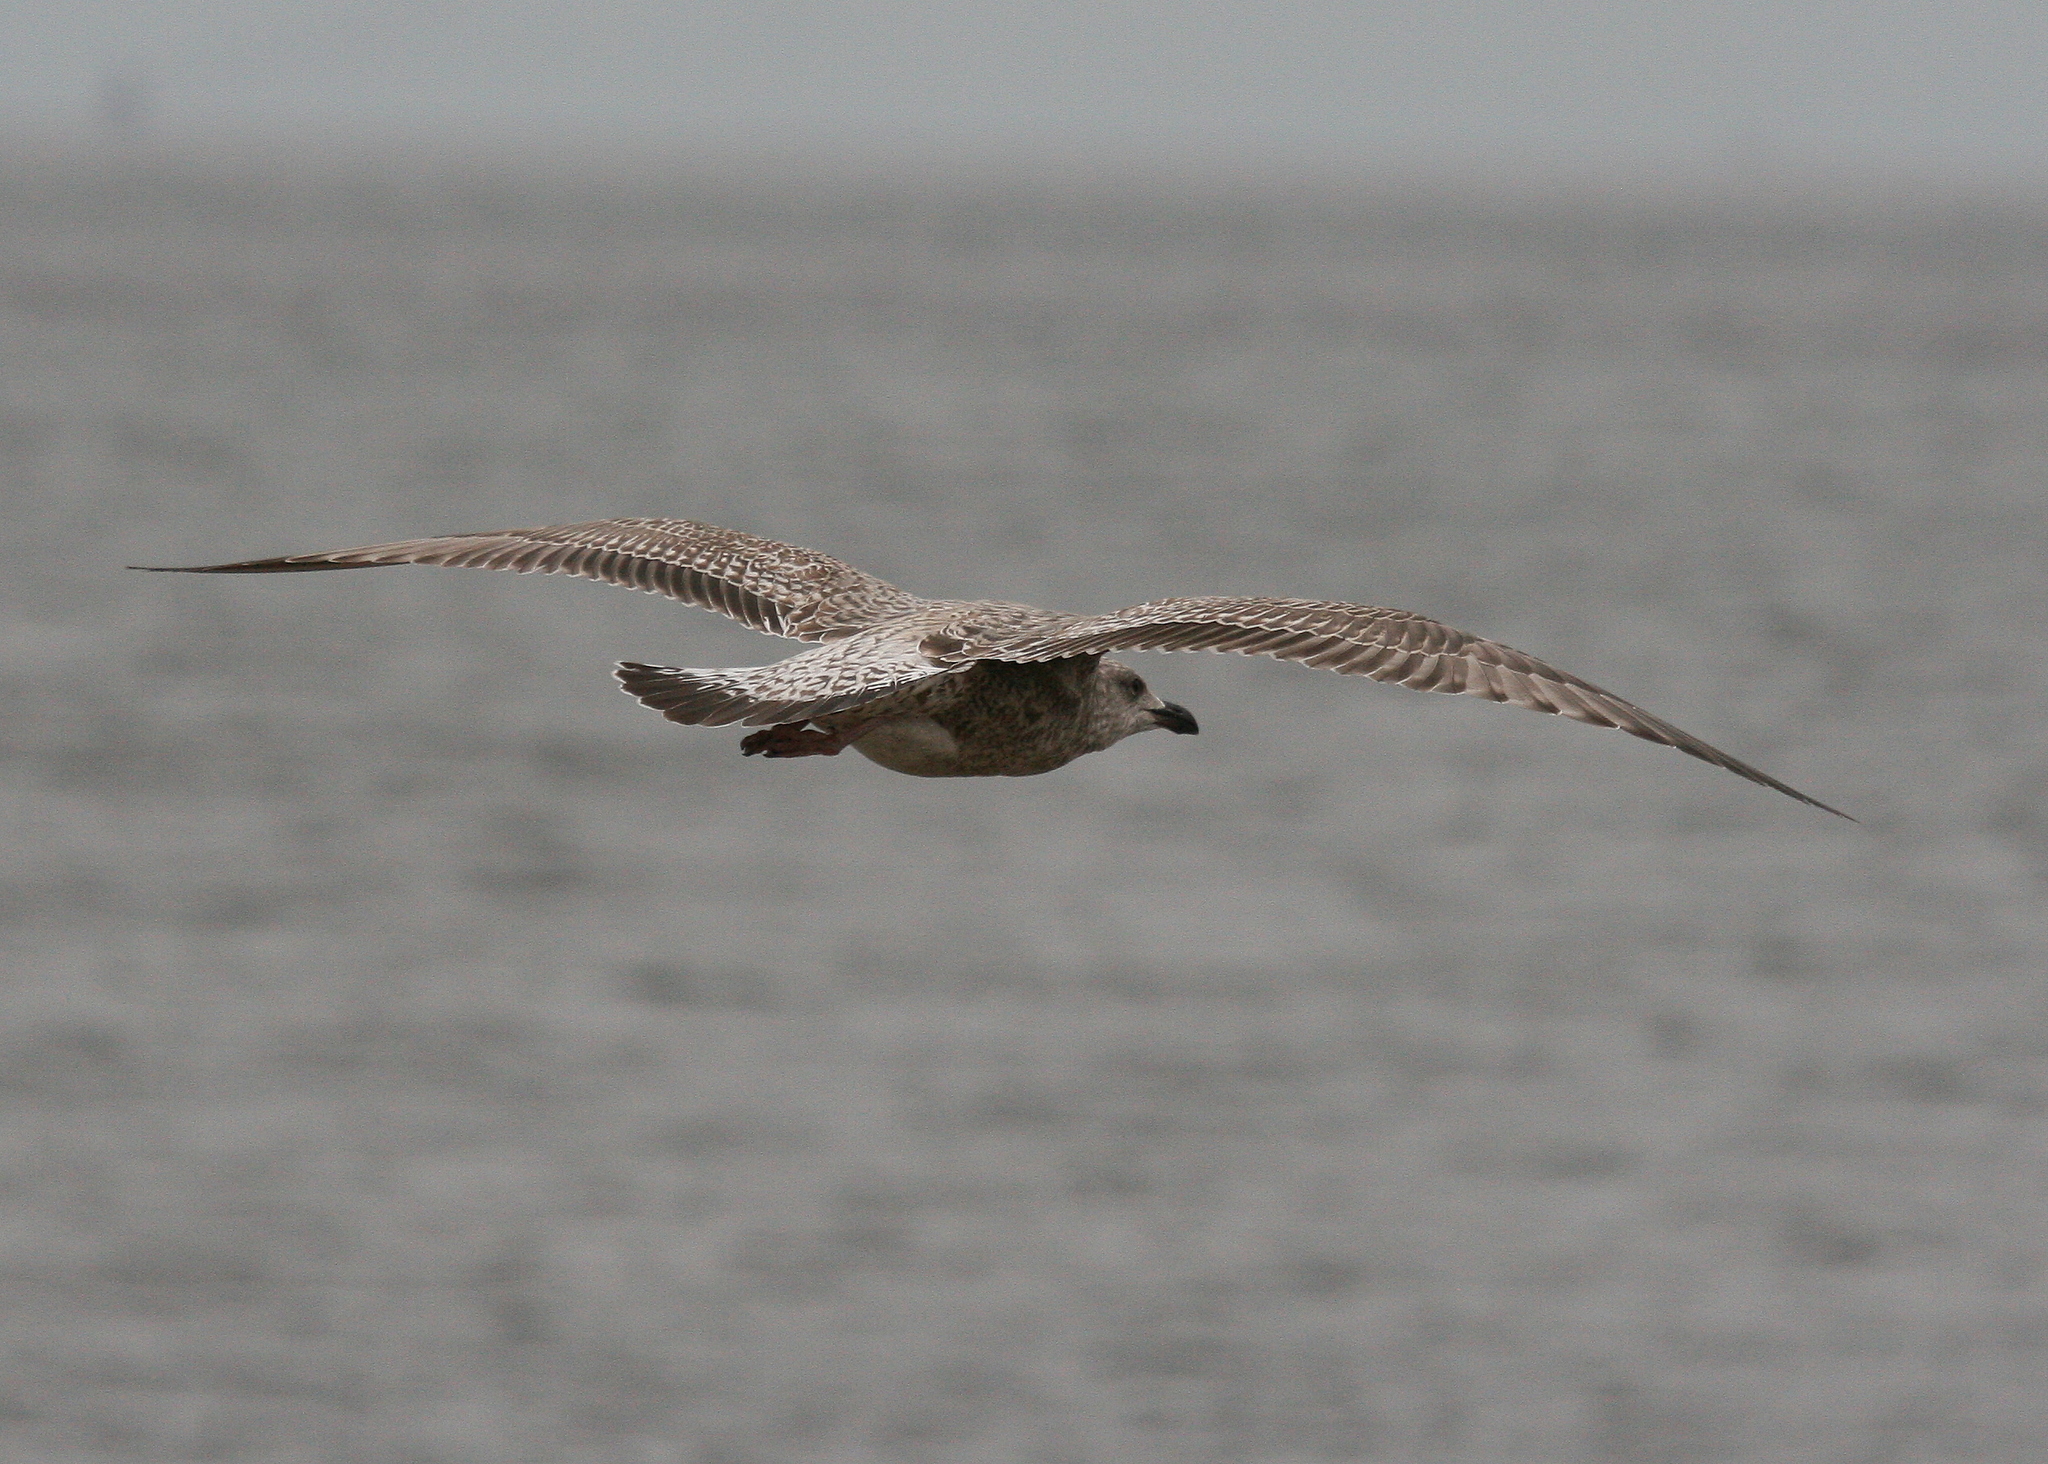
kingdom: Animalia
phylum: Chordata
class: Aves
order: Charadriiformes
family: Laridae
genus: Larus
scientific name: Larus argentatus
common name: Herring gull
